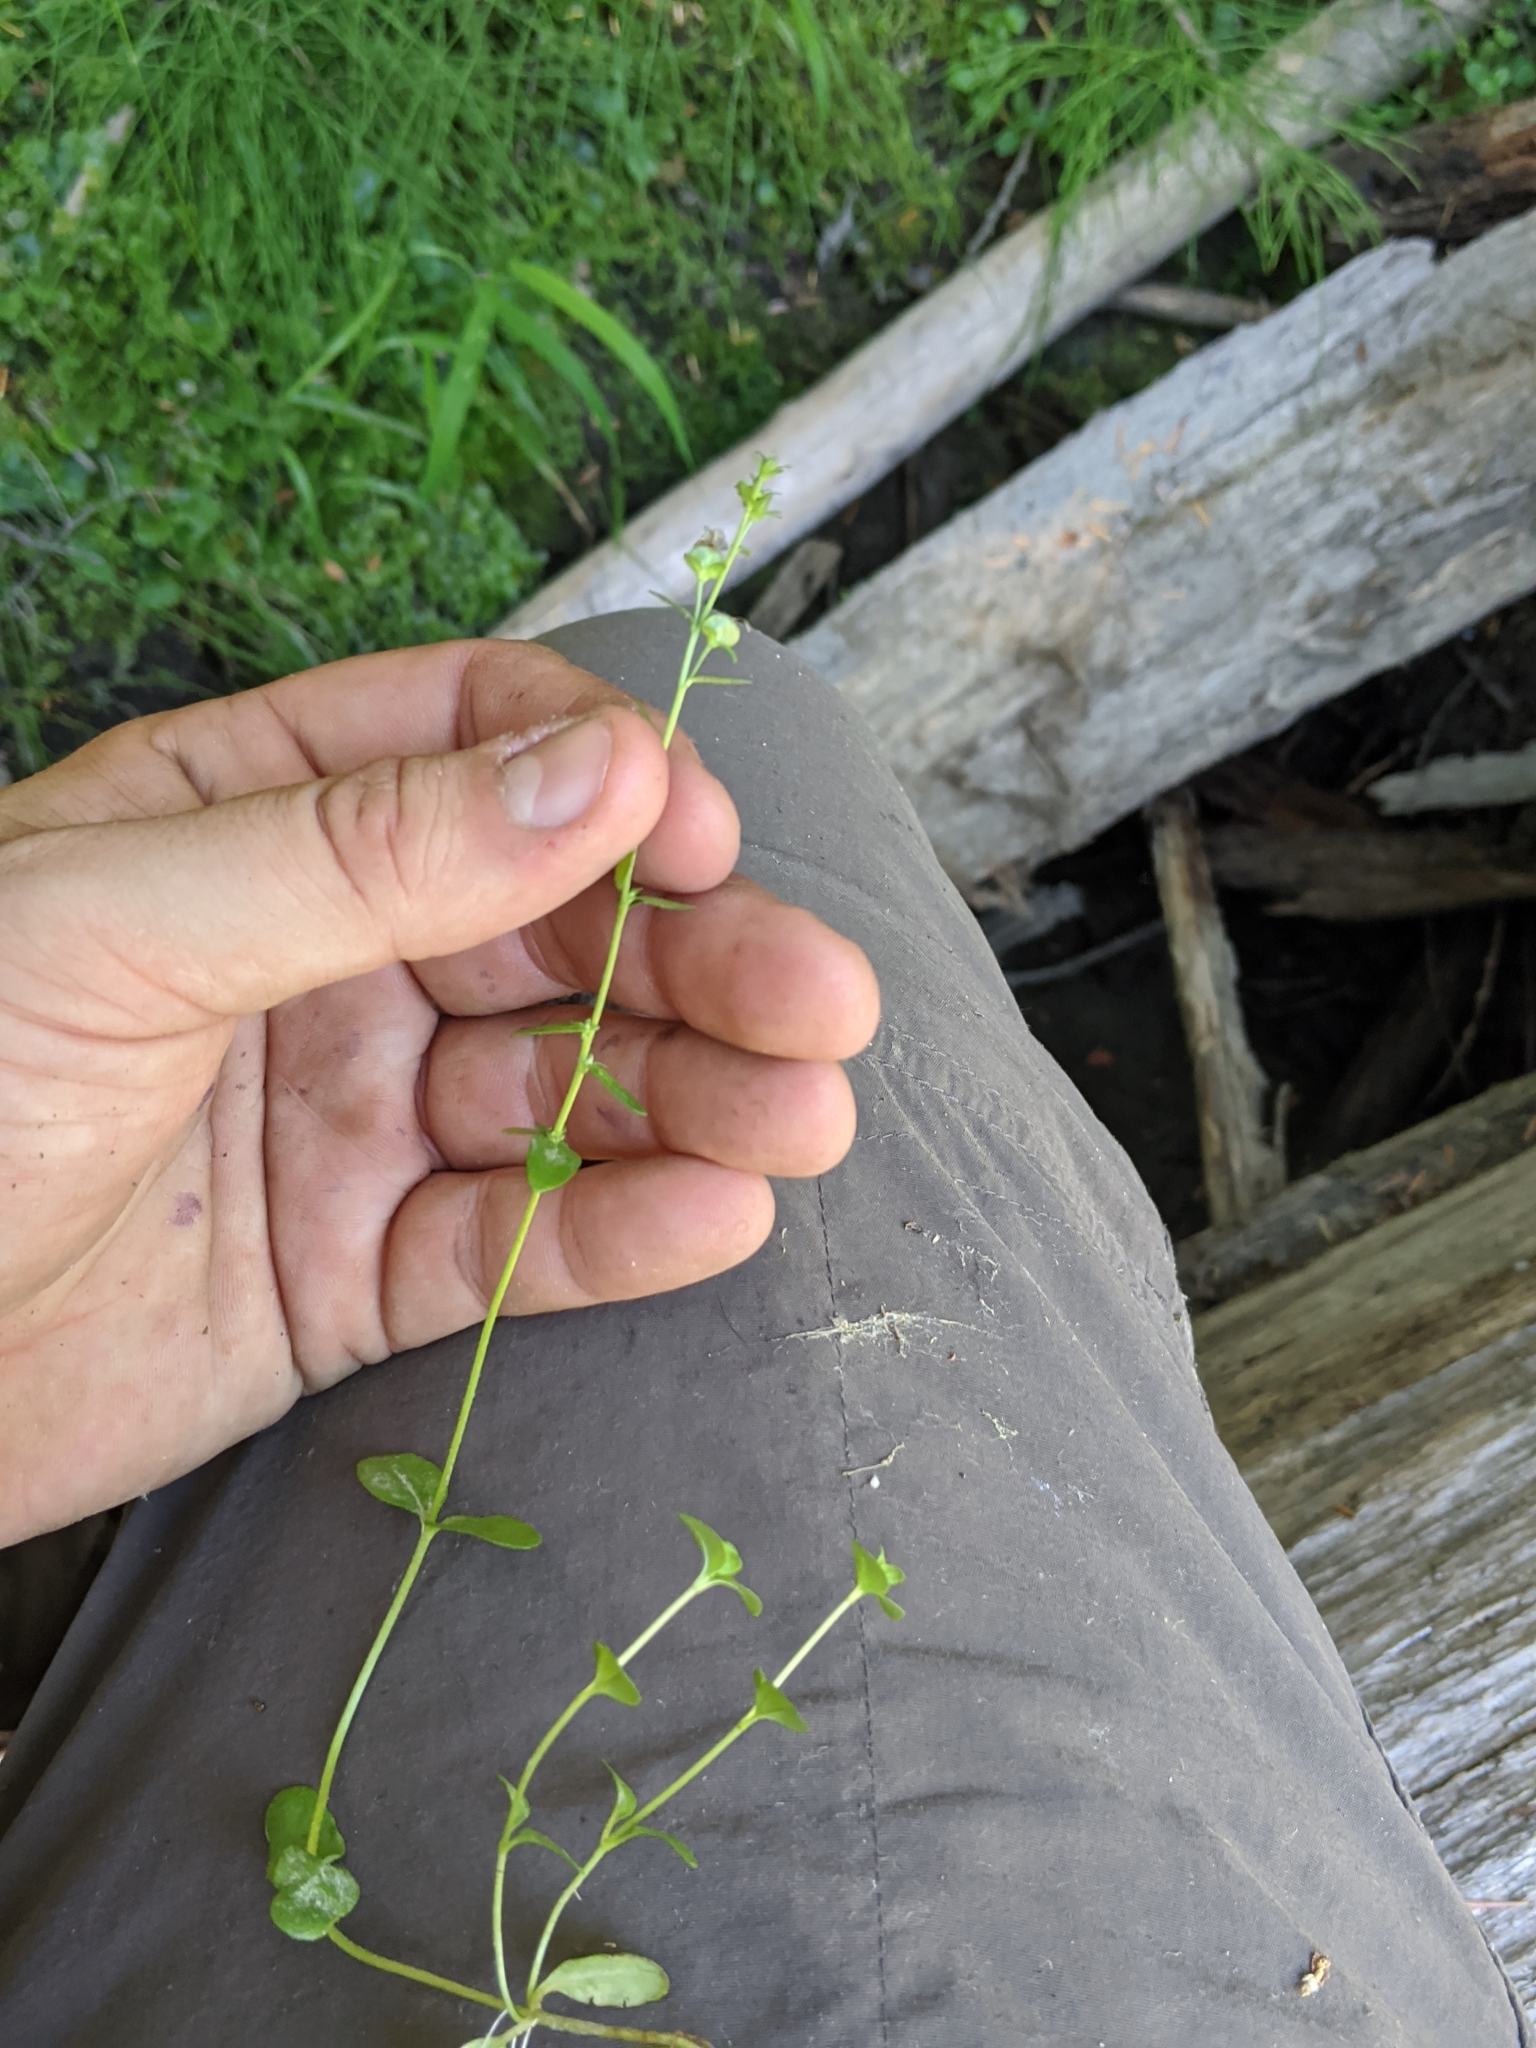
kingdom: Plantae
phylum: Tracheophyta
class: Magnoliopsida
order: Lamiales
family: Plantaginaceae
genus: Veronica
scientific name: Veronica serpyllifolia
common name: Thyme-leaved speedwell
